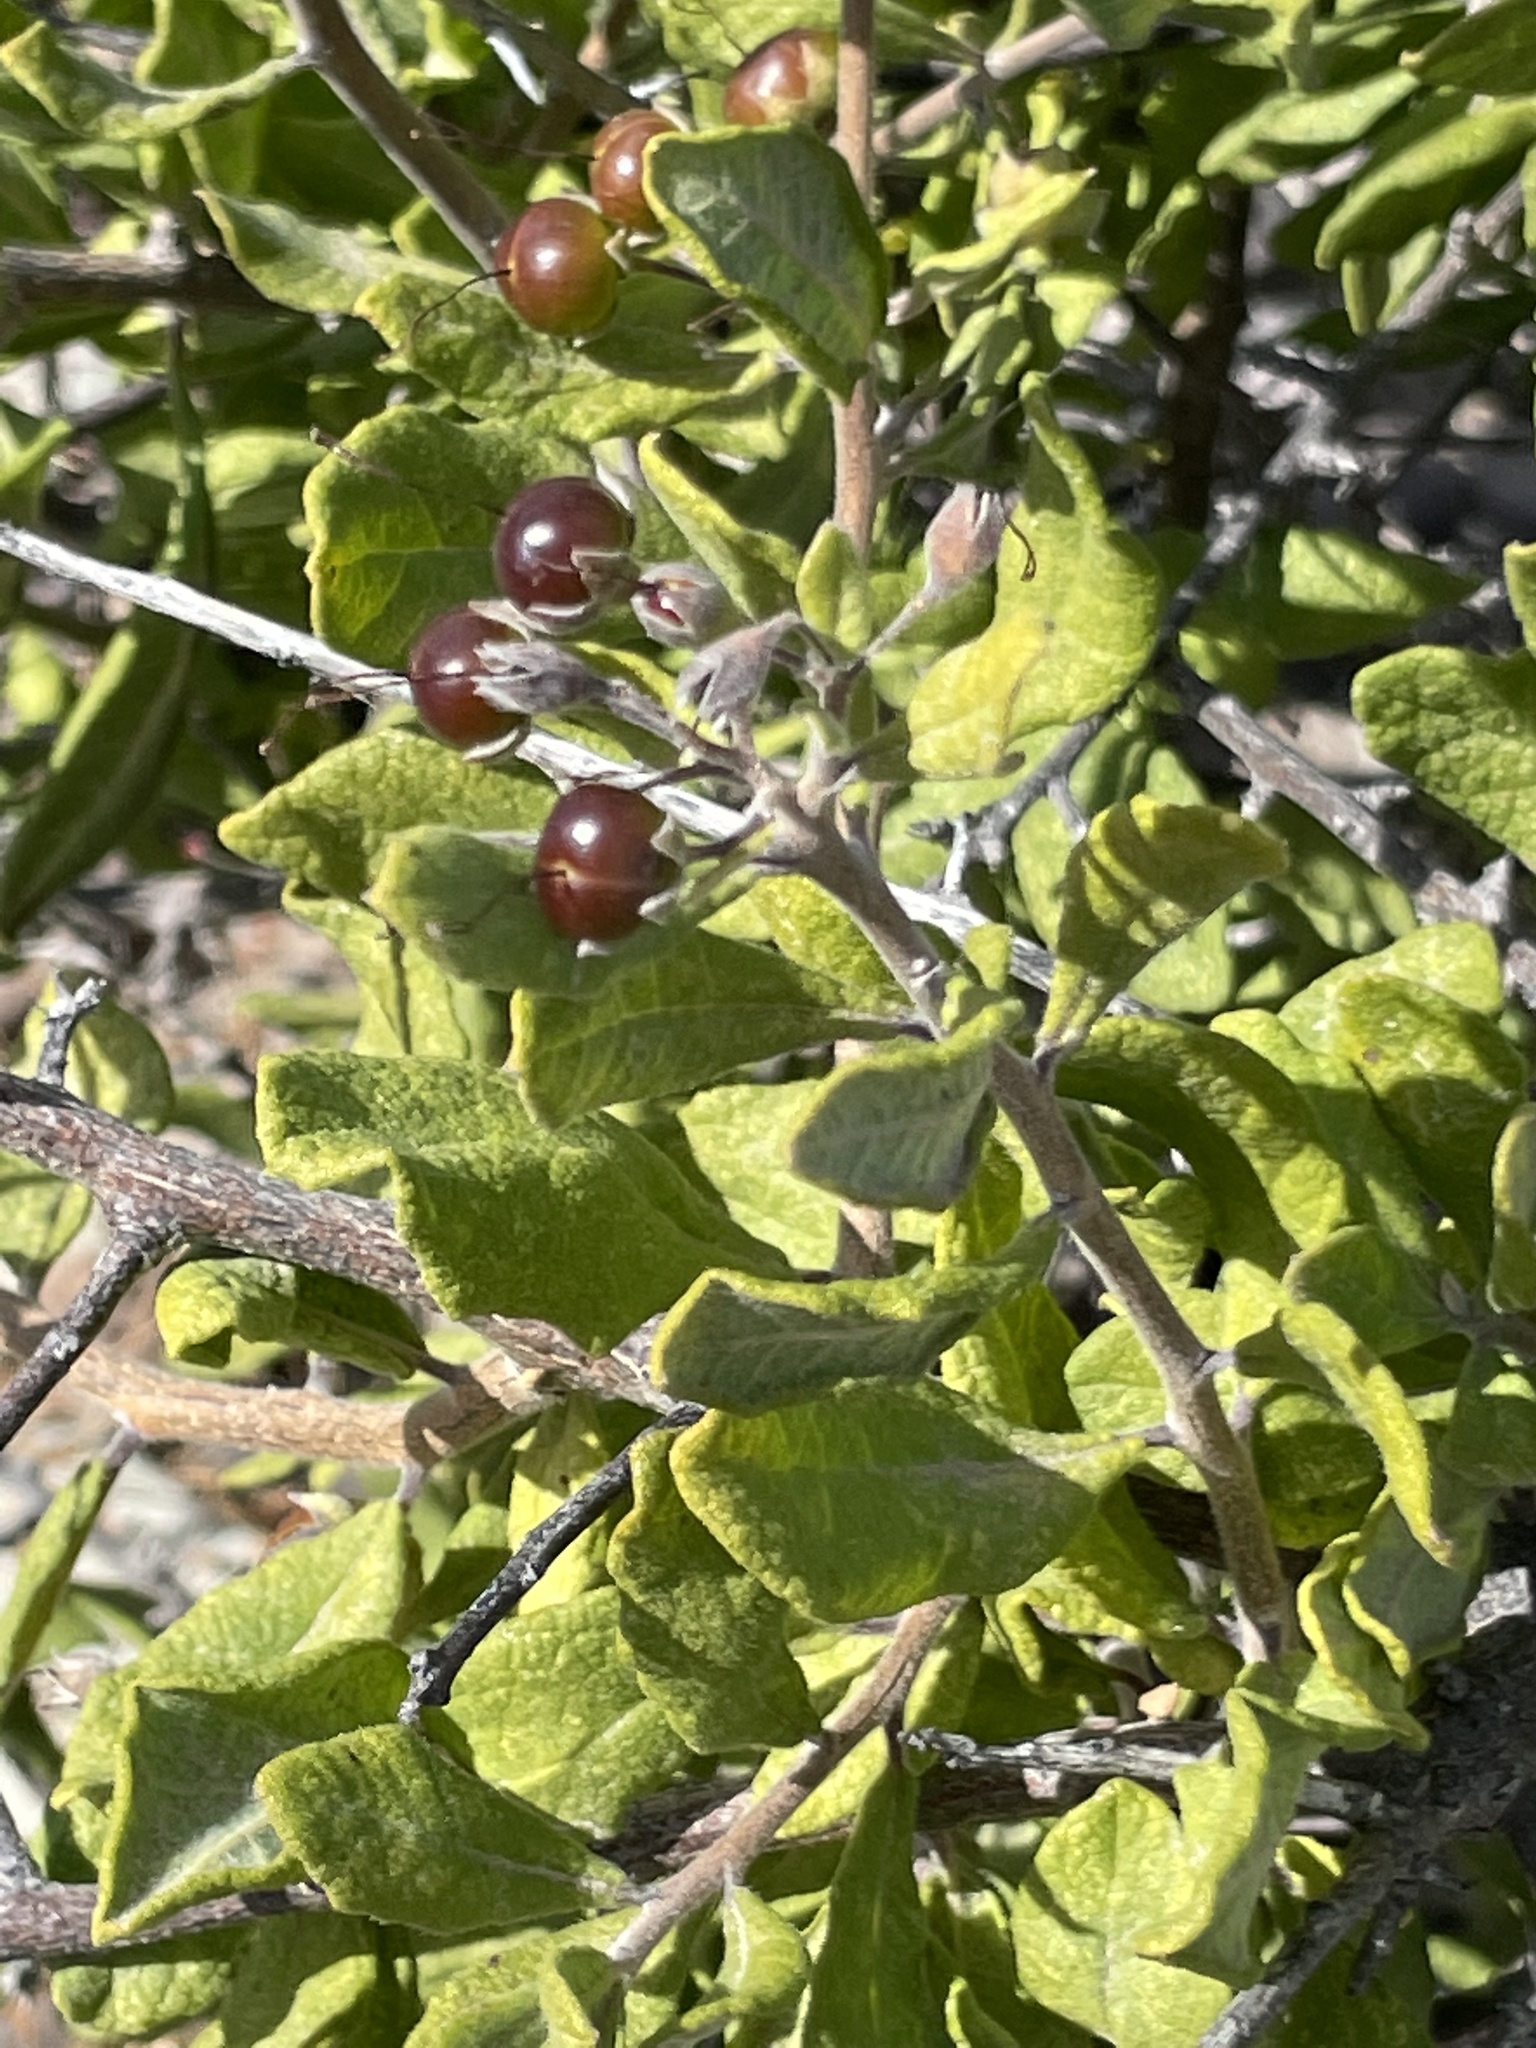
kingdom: Plantae
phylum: Tracheophyta
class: Magnoliopsida
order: Boraginales
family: Ehretiaceae
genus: Bourreria
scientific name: Bourreria sonorae
